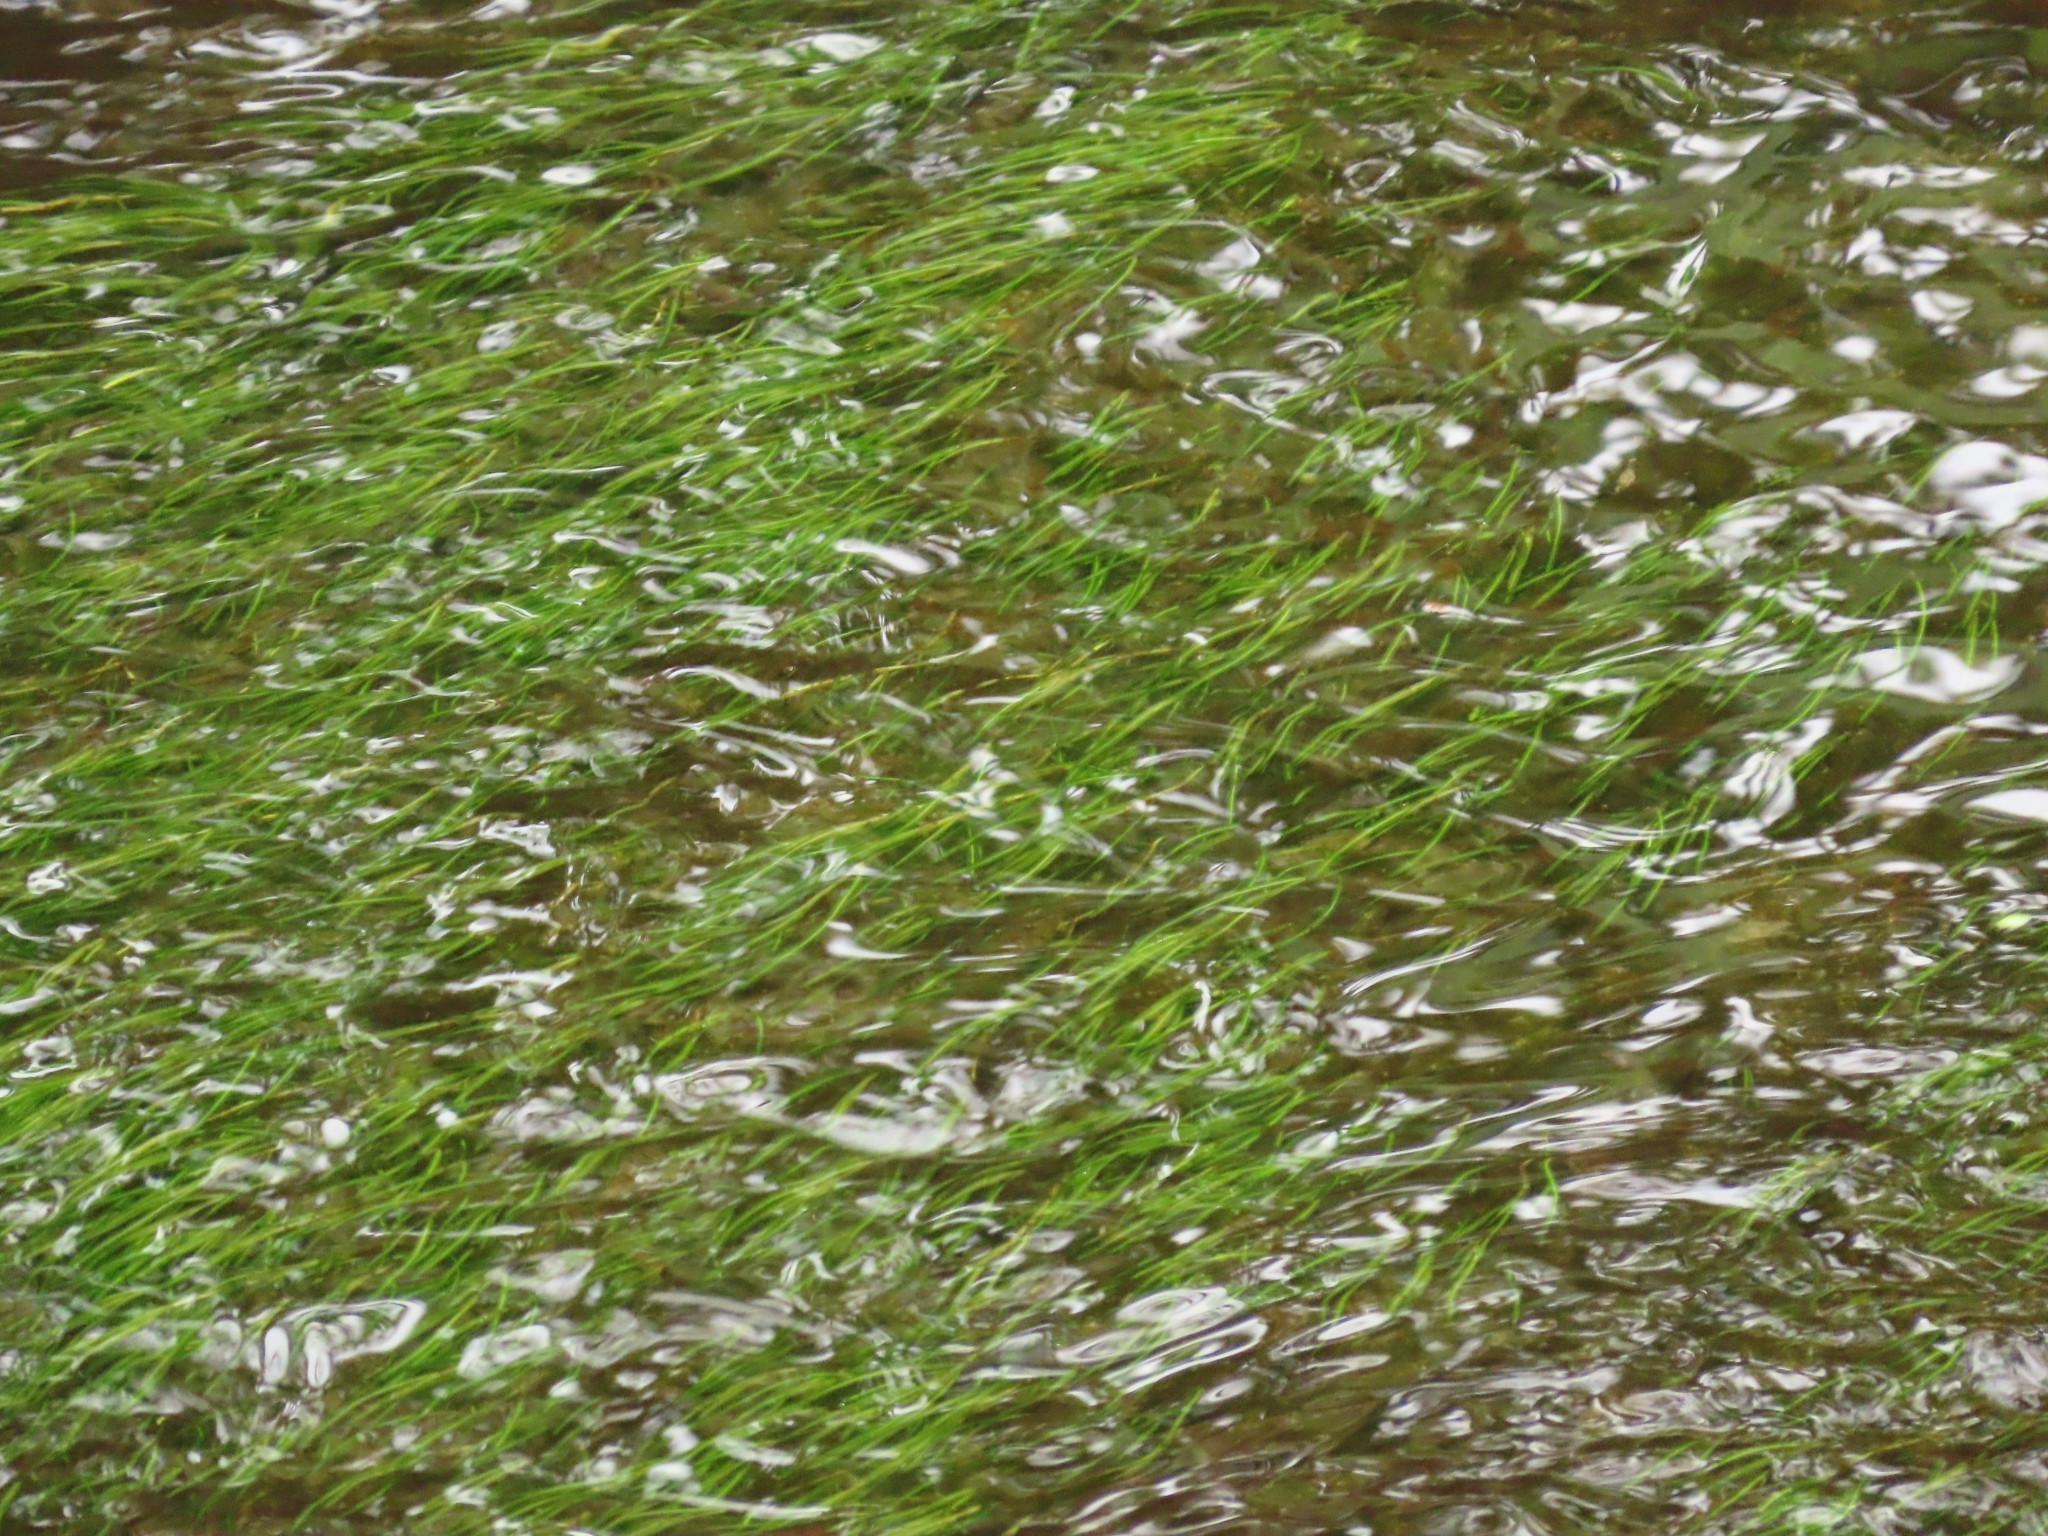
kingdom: Plantae
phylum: Tracheophyta
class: Liliopsida
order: Alismatales
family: Potamogetonaceae
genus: Potamogeton
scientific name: Potamogeton pusillus
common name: Lesser pondweed
